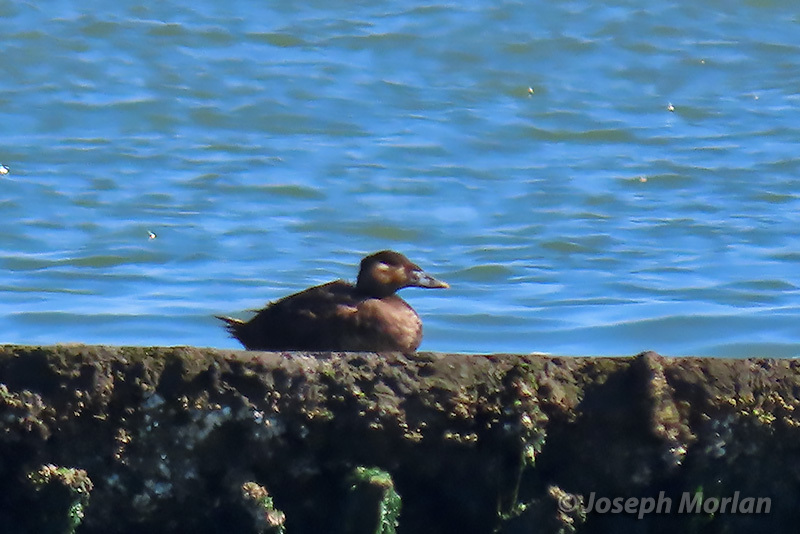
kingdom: Animalia
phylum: Chordata
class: Aves
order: Anseriformes
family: Anatidae
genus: Melanitta
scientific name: Melanitta perspicillata
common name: Surf scoter
